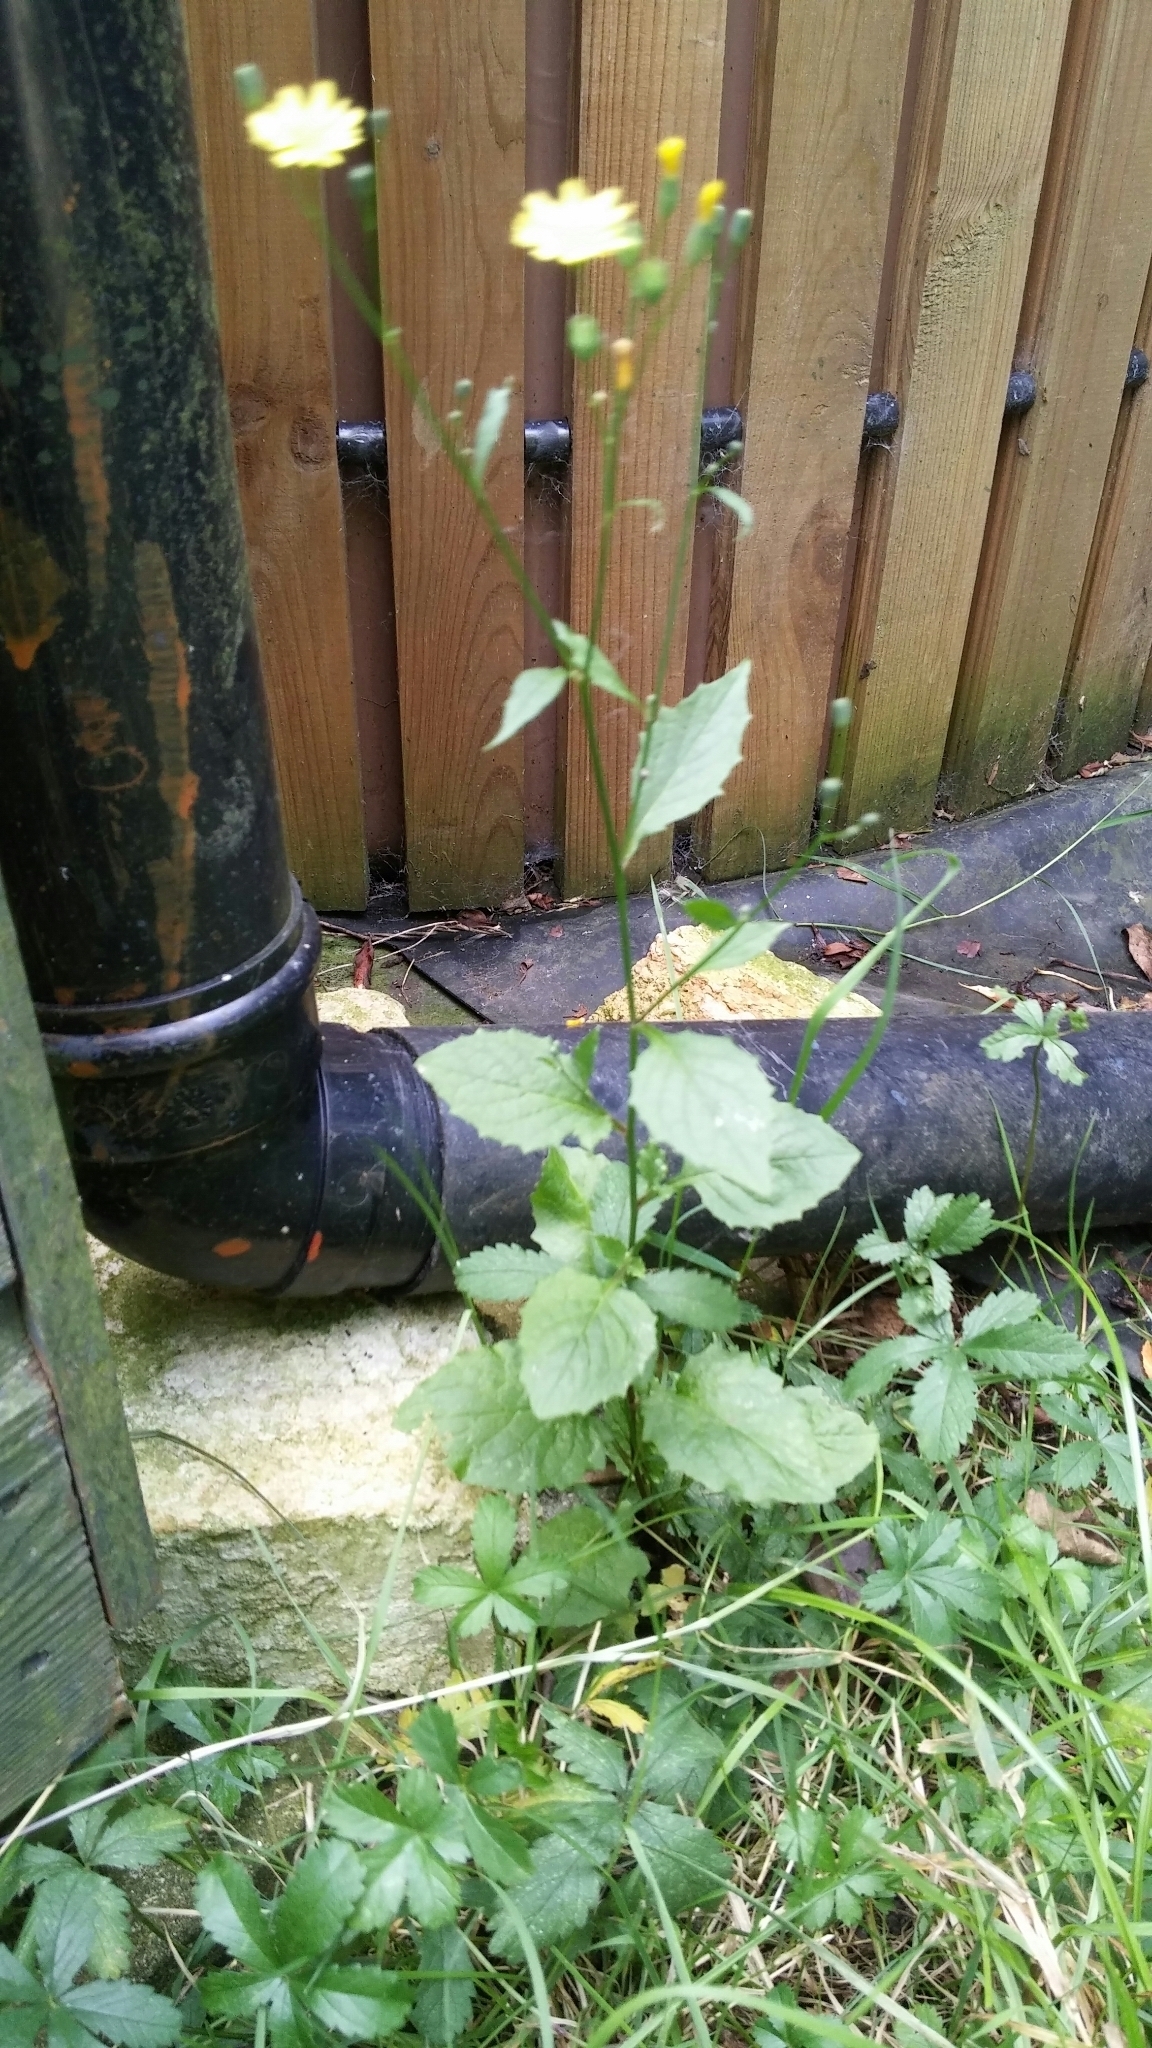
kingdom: Plantae
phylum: Tracheophyta
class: Magnoliopsida
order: Asterales
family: Asteraceae
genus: Lapsana
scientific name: Lapsana communis
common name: Nipplewort
